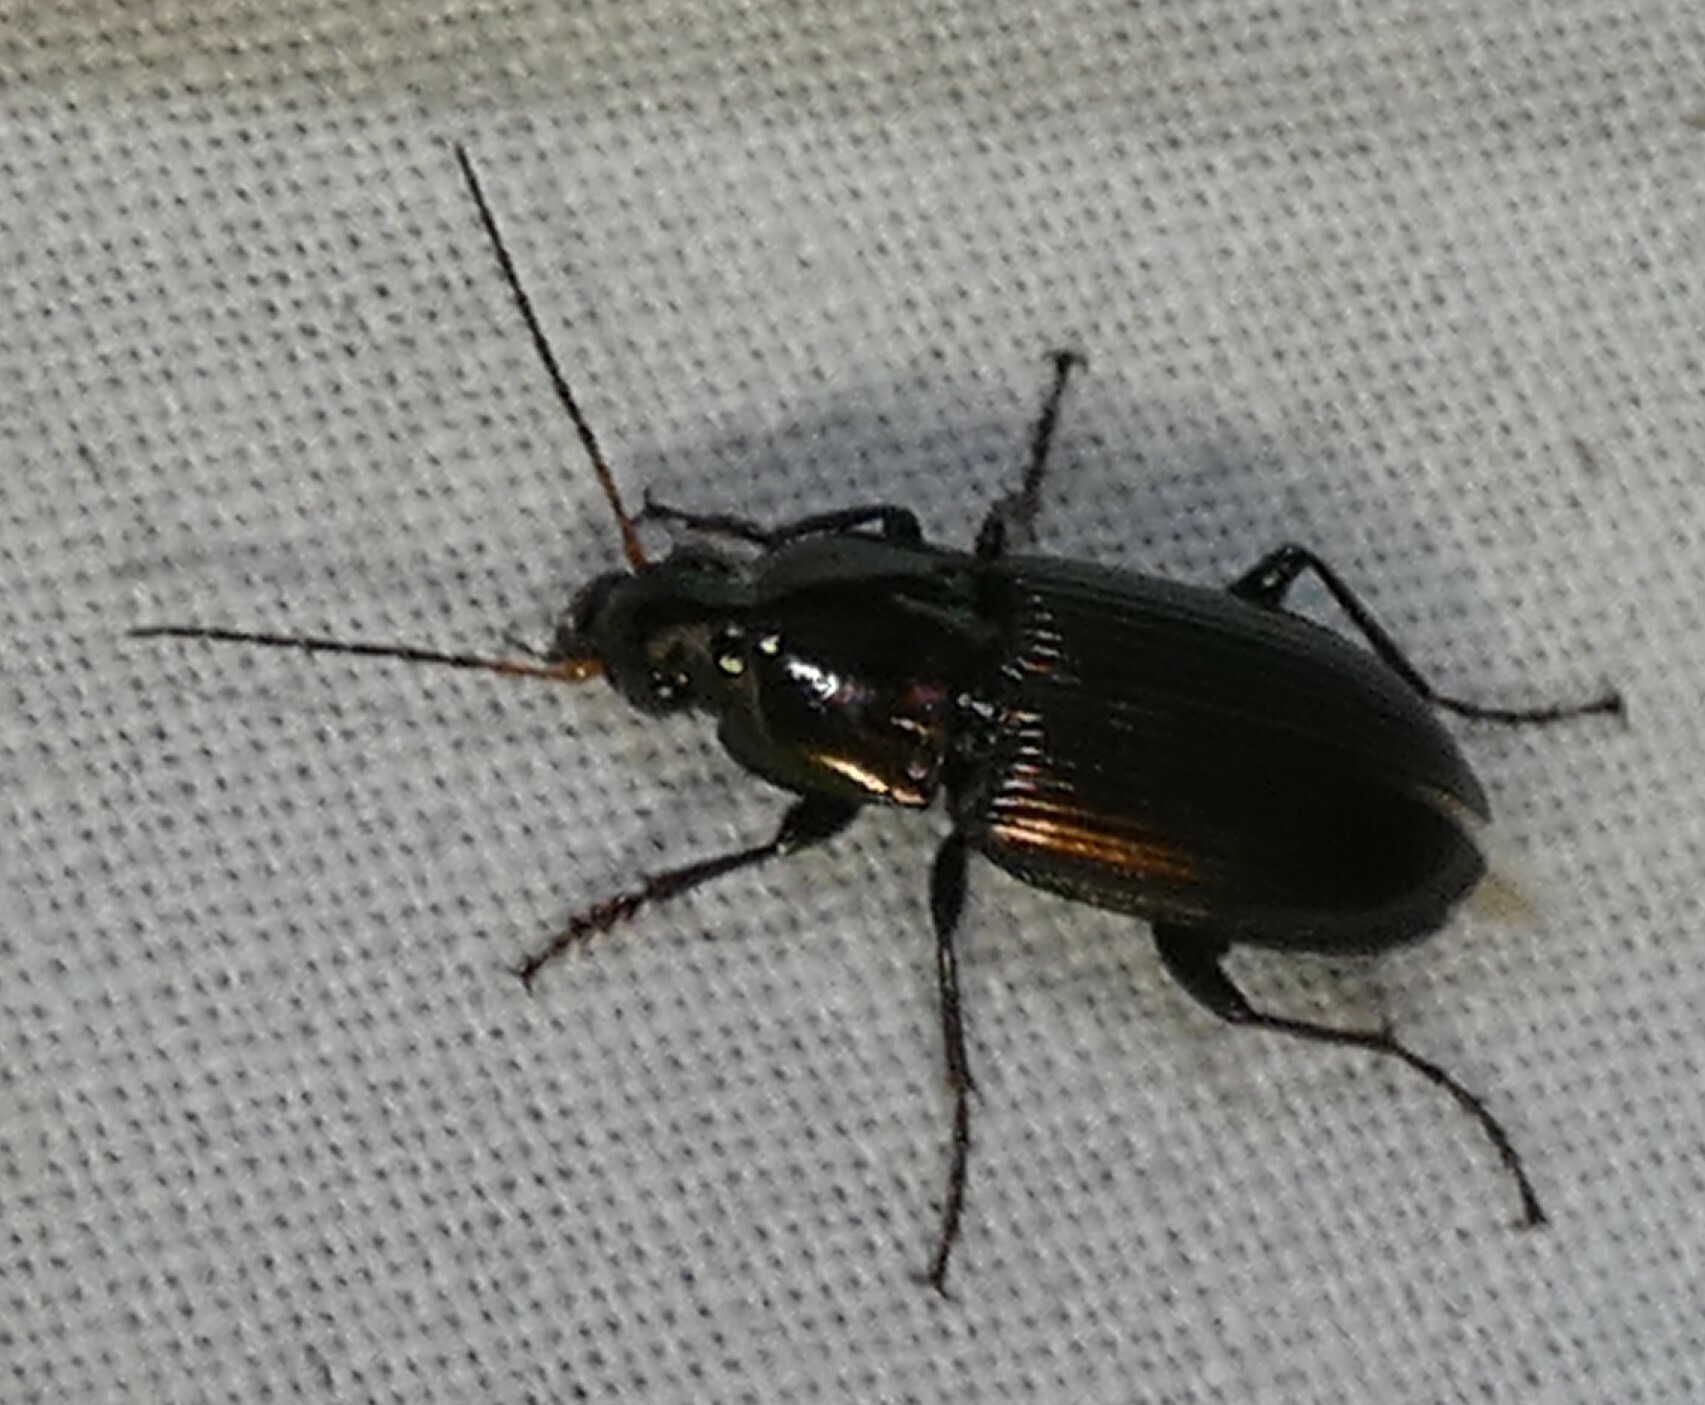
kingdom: Animalia
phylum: Arthropoda
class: Insecta
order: Coleoptera
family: Carabidae
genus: Poecilus
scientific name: Poecilus chalcites
